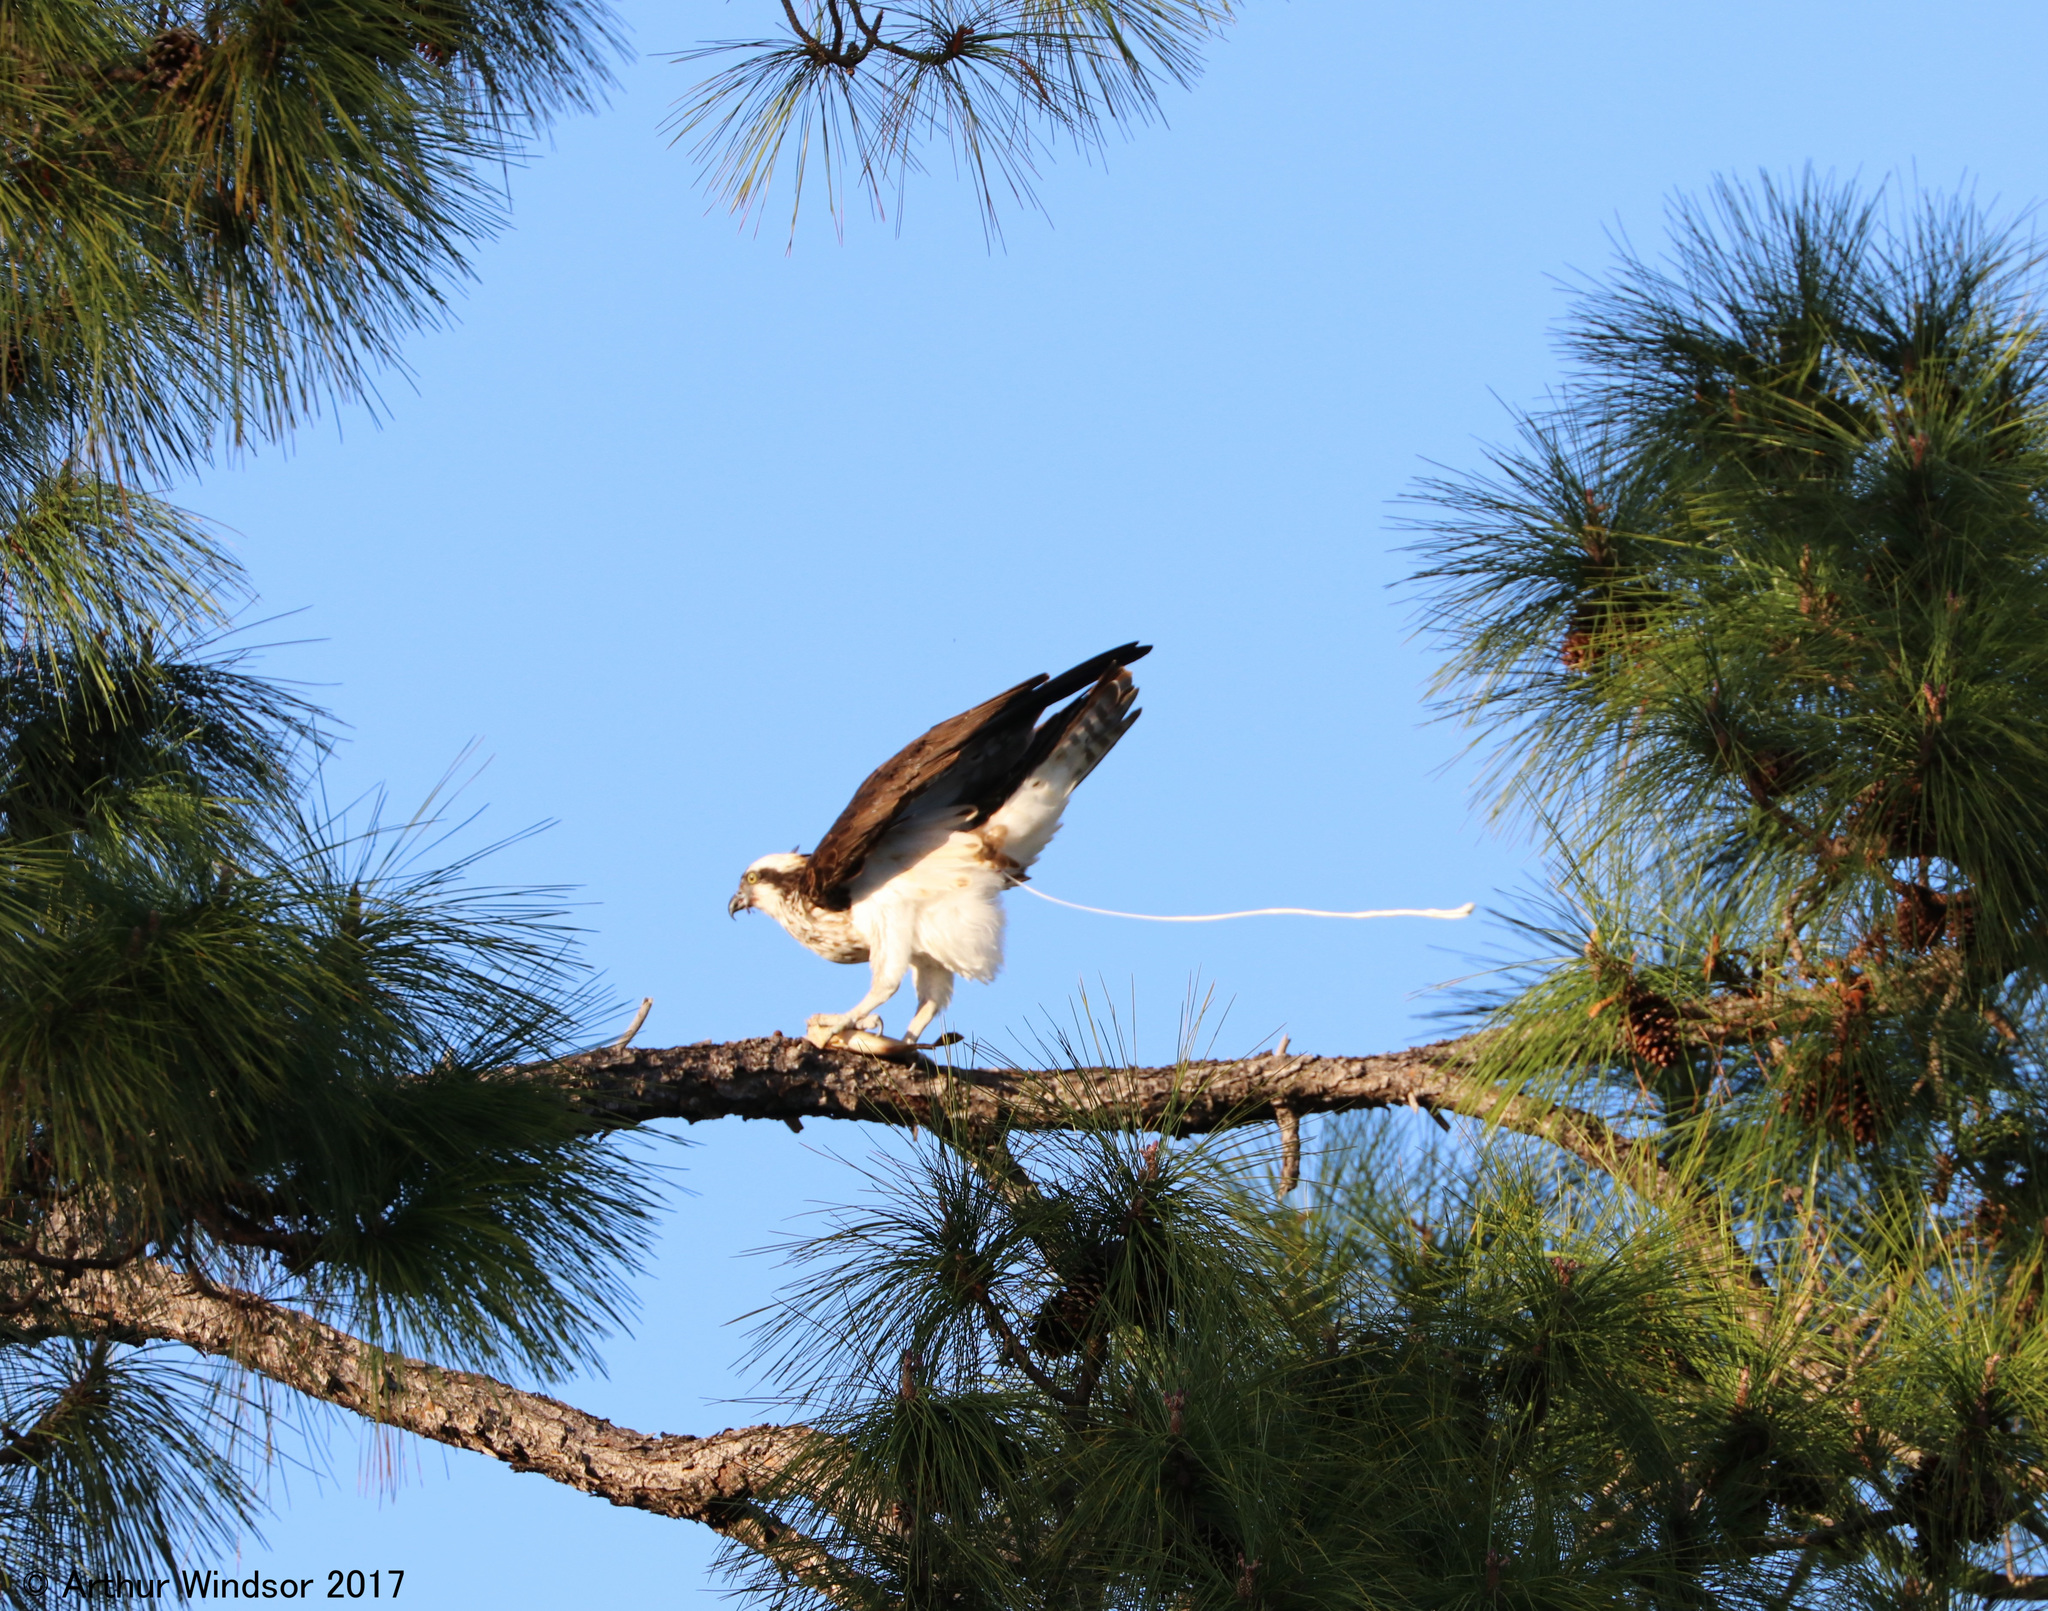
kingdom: Animalia
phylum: Chordata
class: Aves
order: Accipitriformes
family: Pandionidae
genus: Pandion
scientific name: Pandion haliaetus
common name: Osprey
